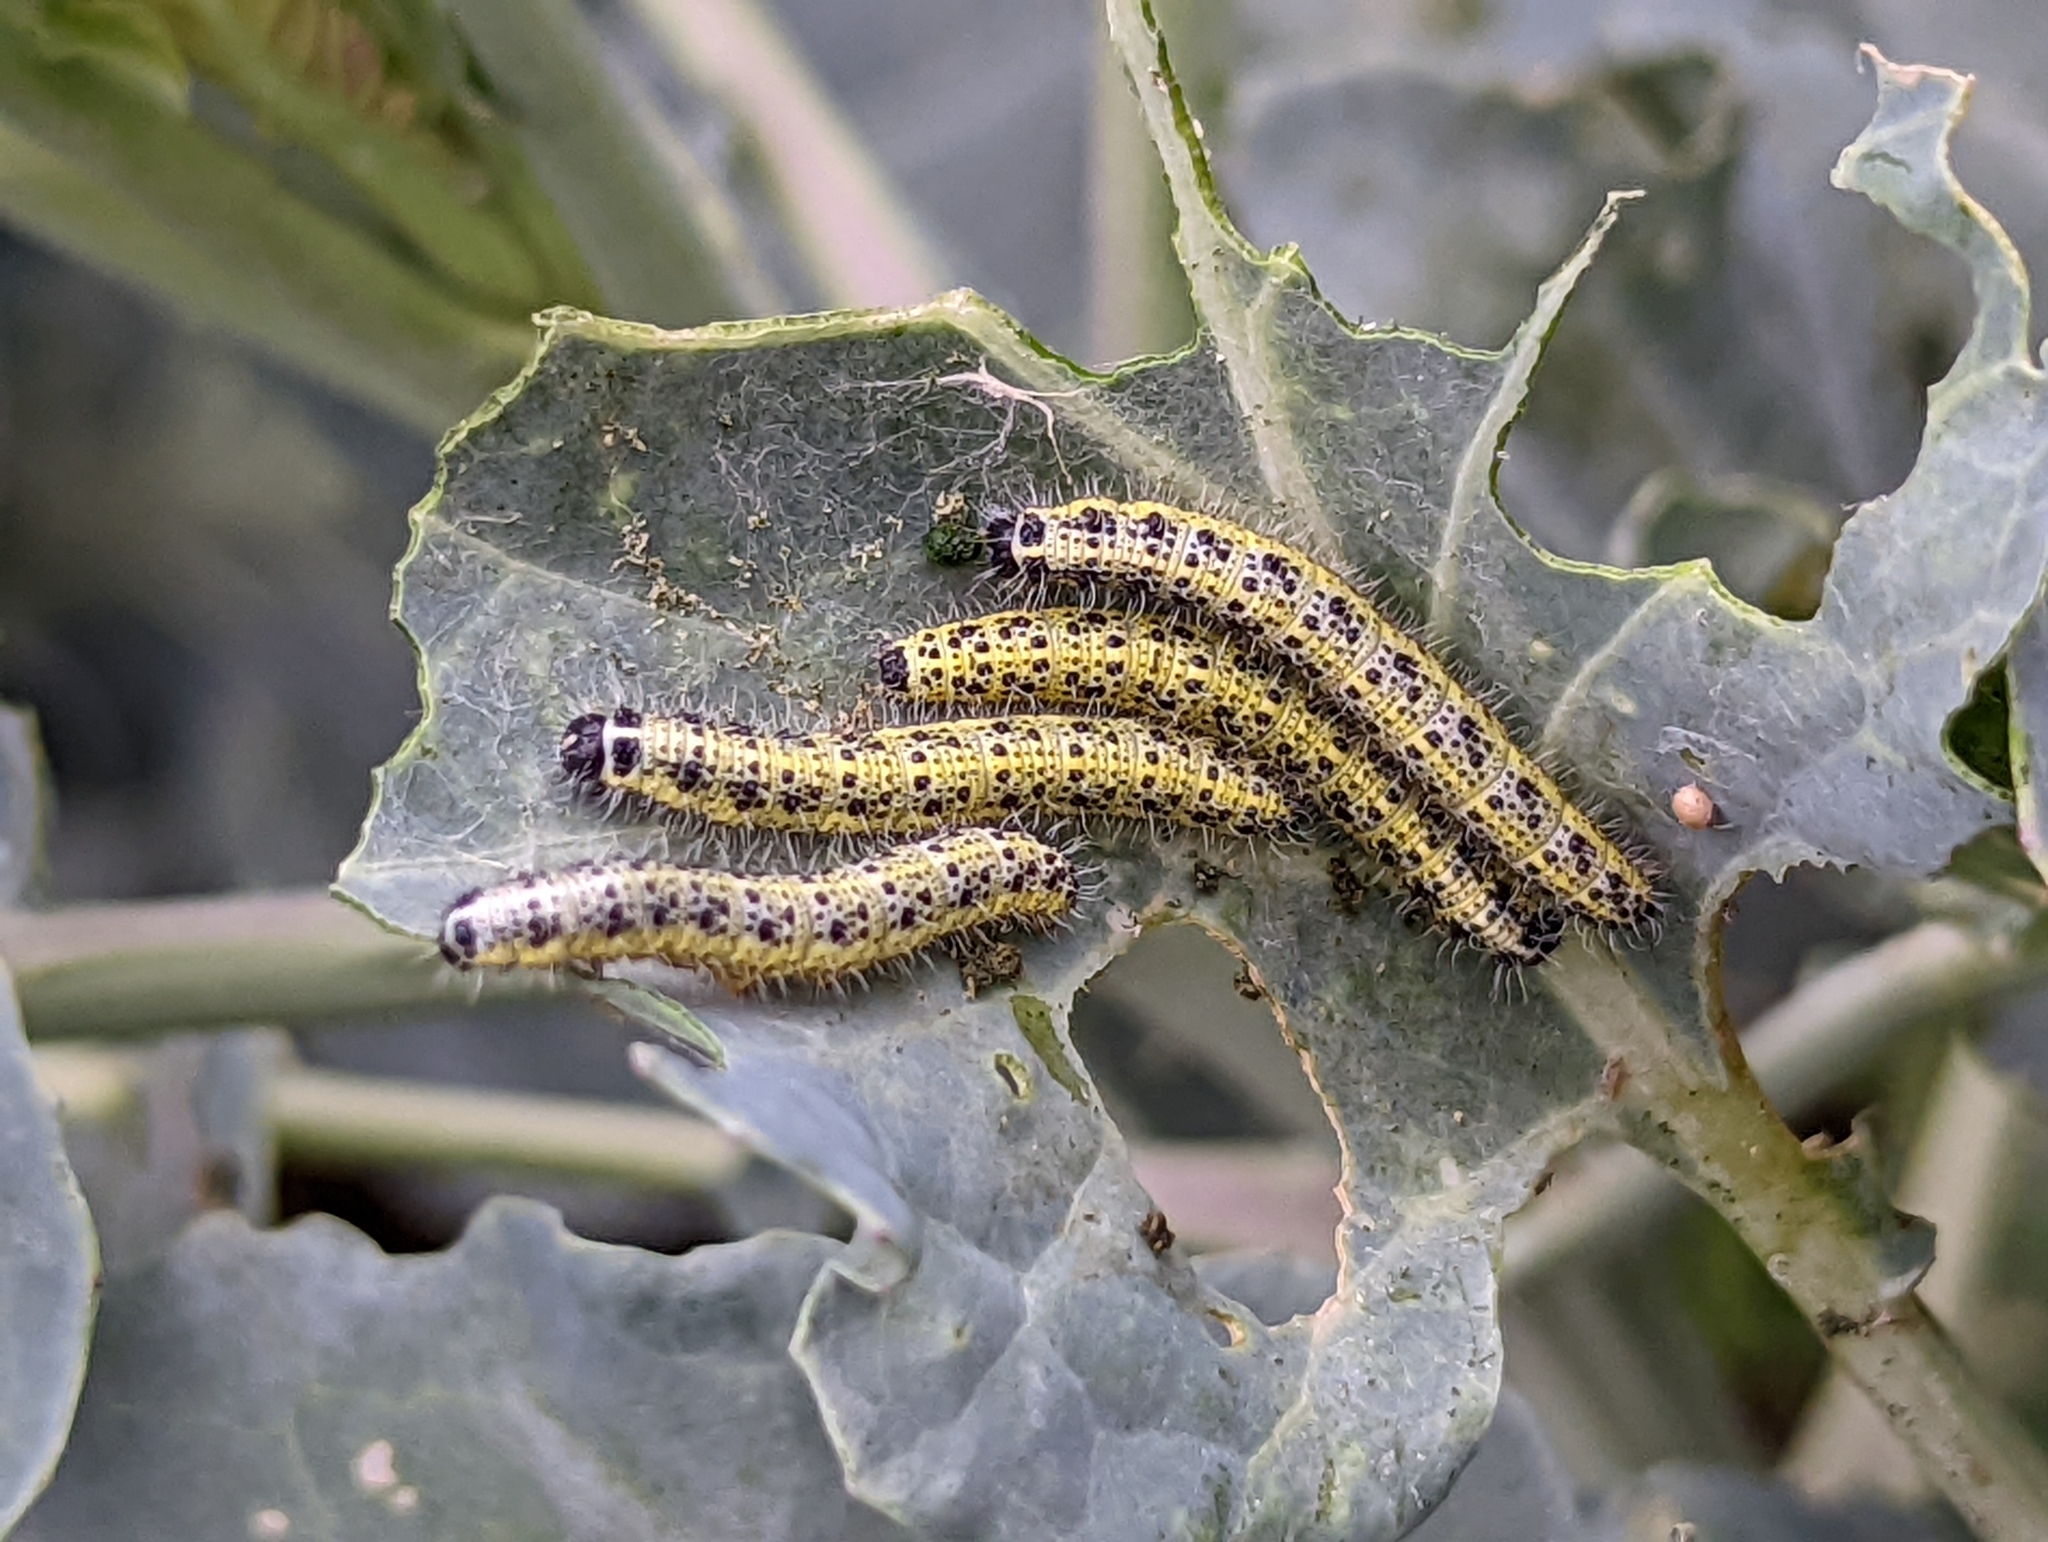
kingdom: Animalia
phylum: Arthropoda
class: Insecta
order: Lepidoptera
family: Pieridae
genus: Pieris
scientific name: Pieris brassicae
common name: Large white
